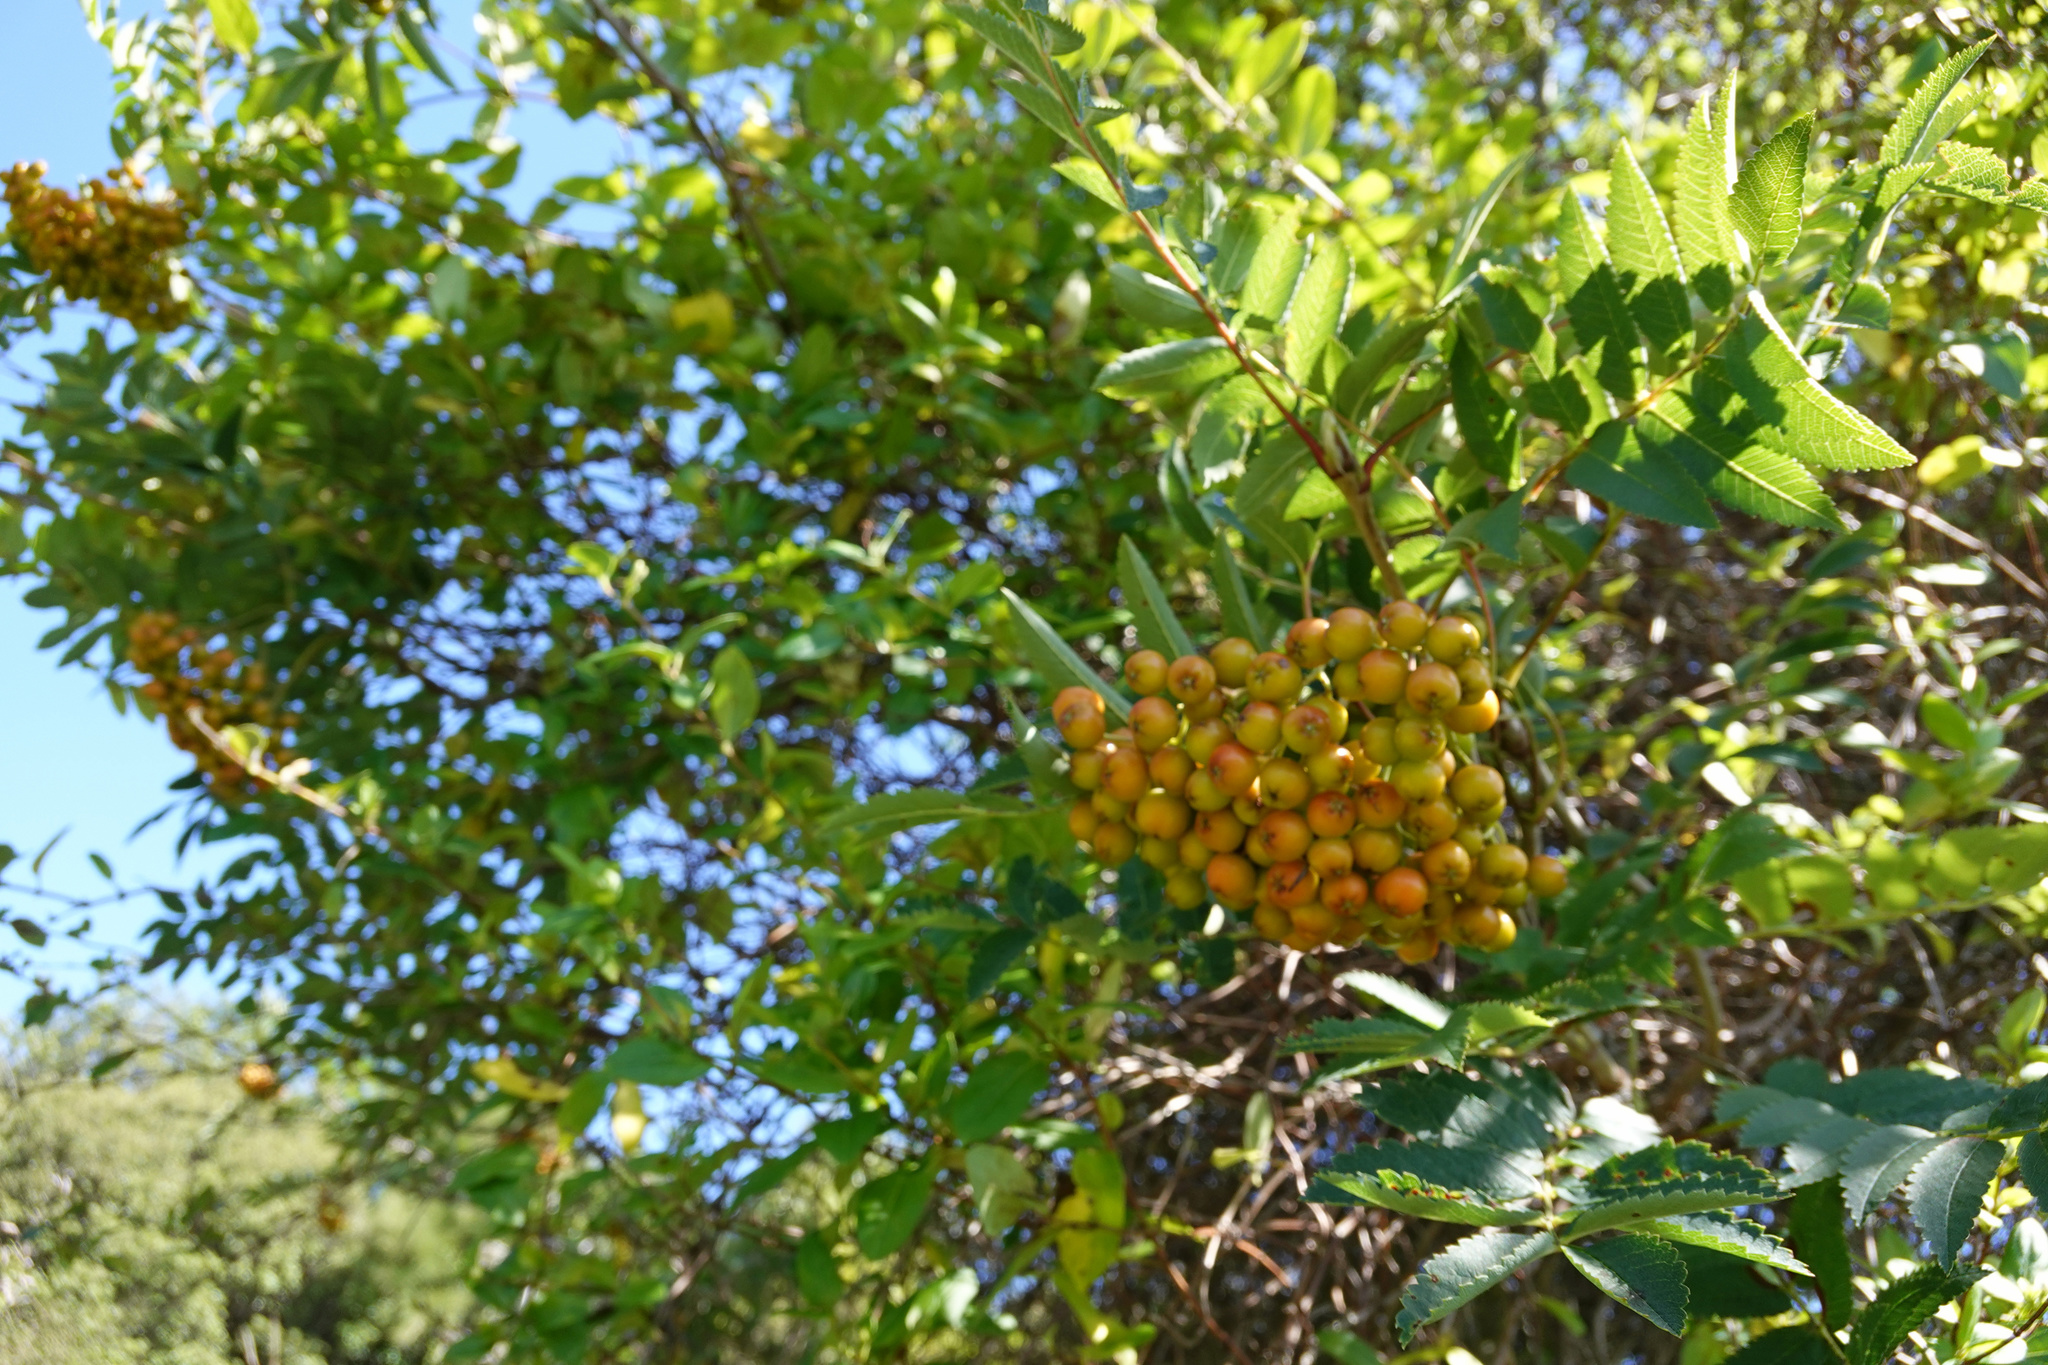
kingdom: Plantae
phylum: Tracheophyta
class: Magnoliopsida
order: Rosales
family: Rosaceae
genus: Sorbus
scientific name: Sorbus aucuparia
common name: Rowan
